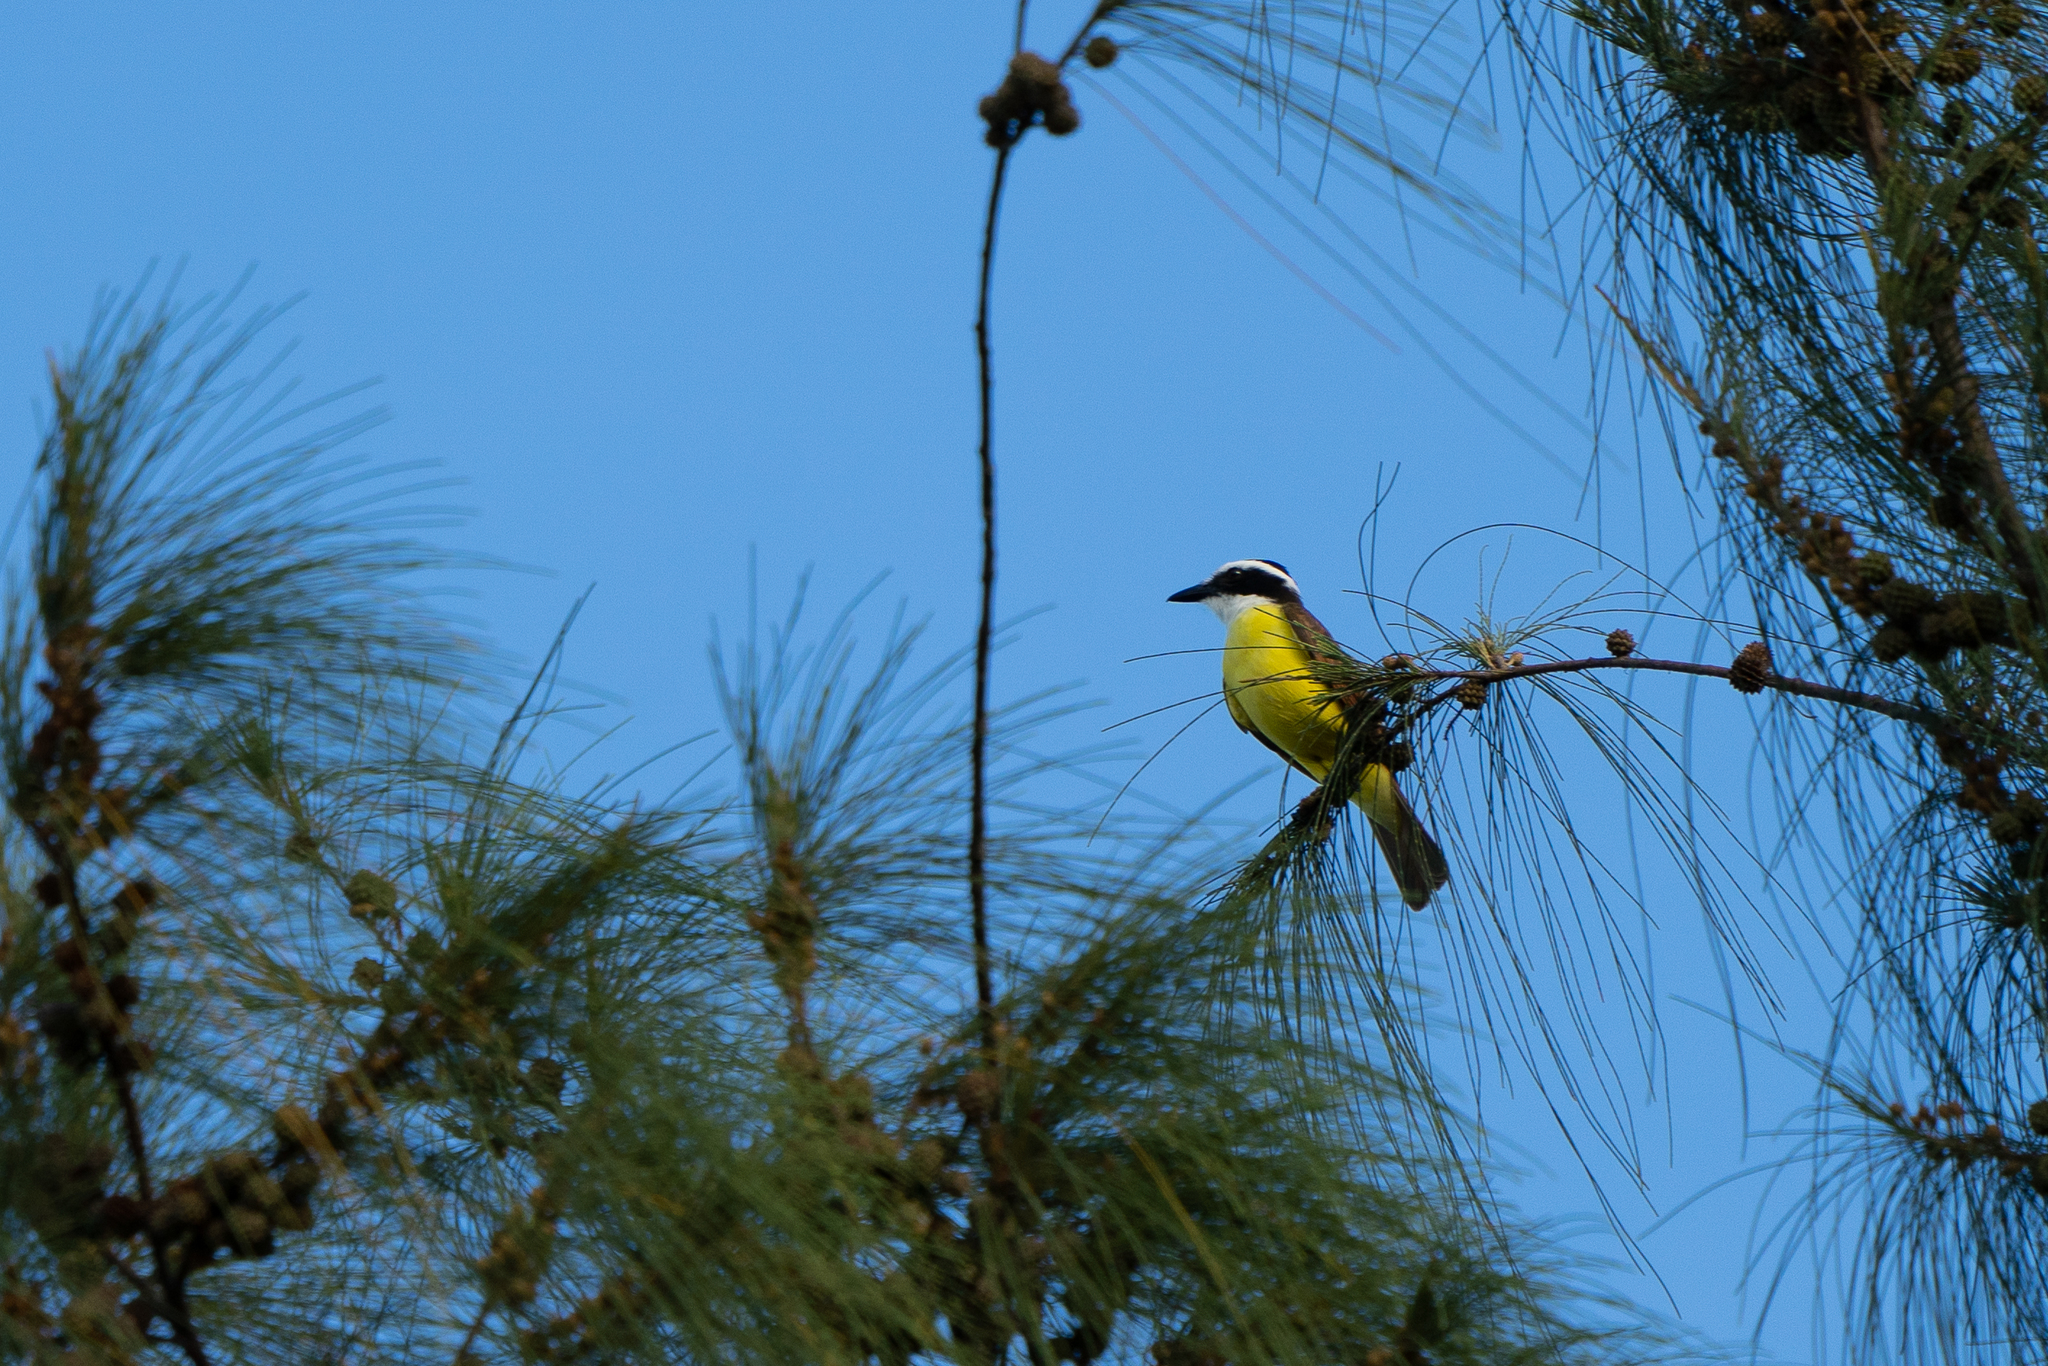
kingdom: Animalia
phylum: Chordata
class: Aves
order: Passeriformes
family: Tyrannidae
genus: Pitangus
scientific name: Pitangus sulphuratus
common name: Great kiskadee
